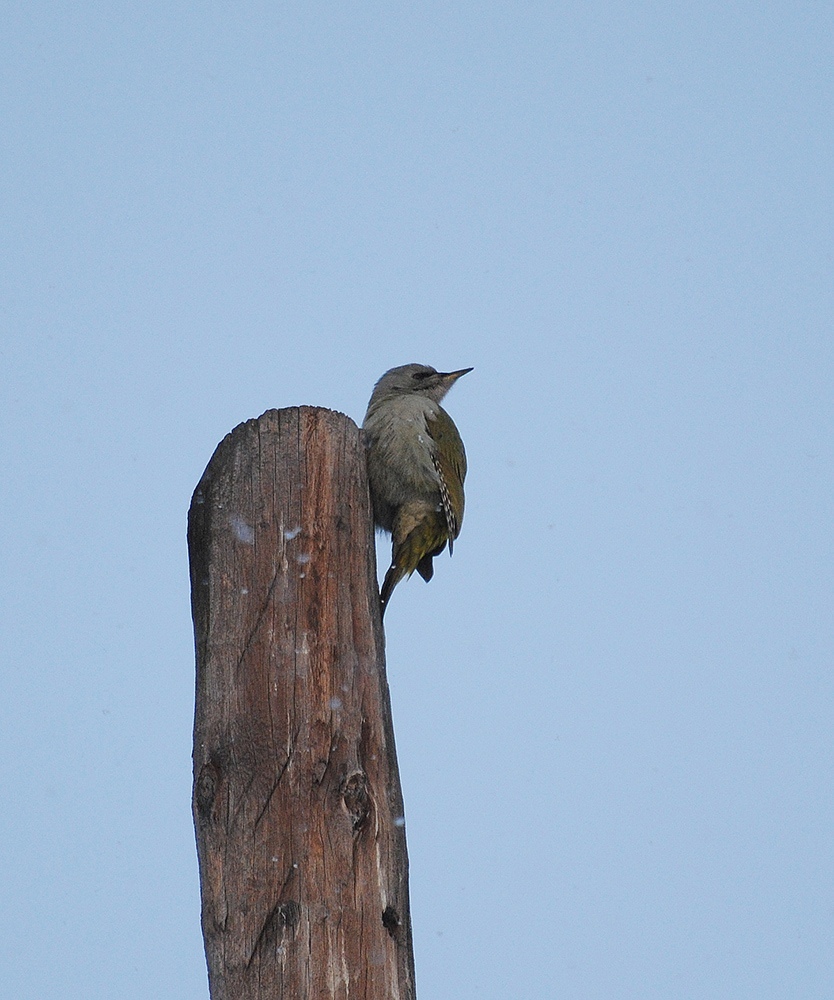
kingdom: Animalia
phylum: Chordata
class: Aves
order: Piciformes
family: Picidae
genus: Picus
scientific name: Picus canus
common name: Grey-headed woodpecker
